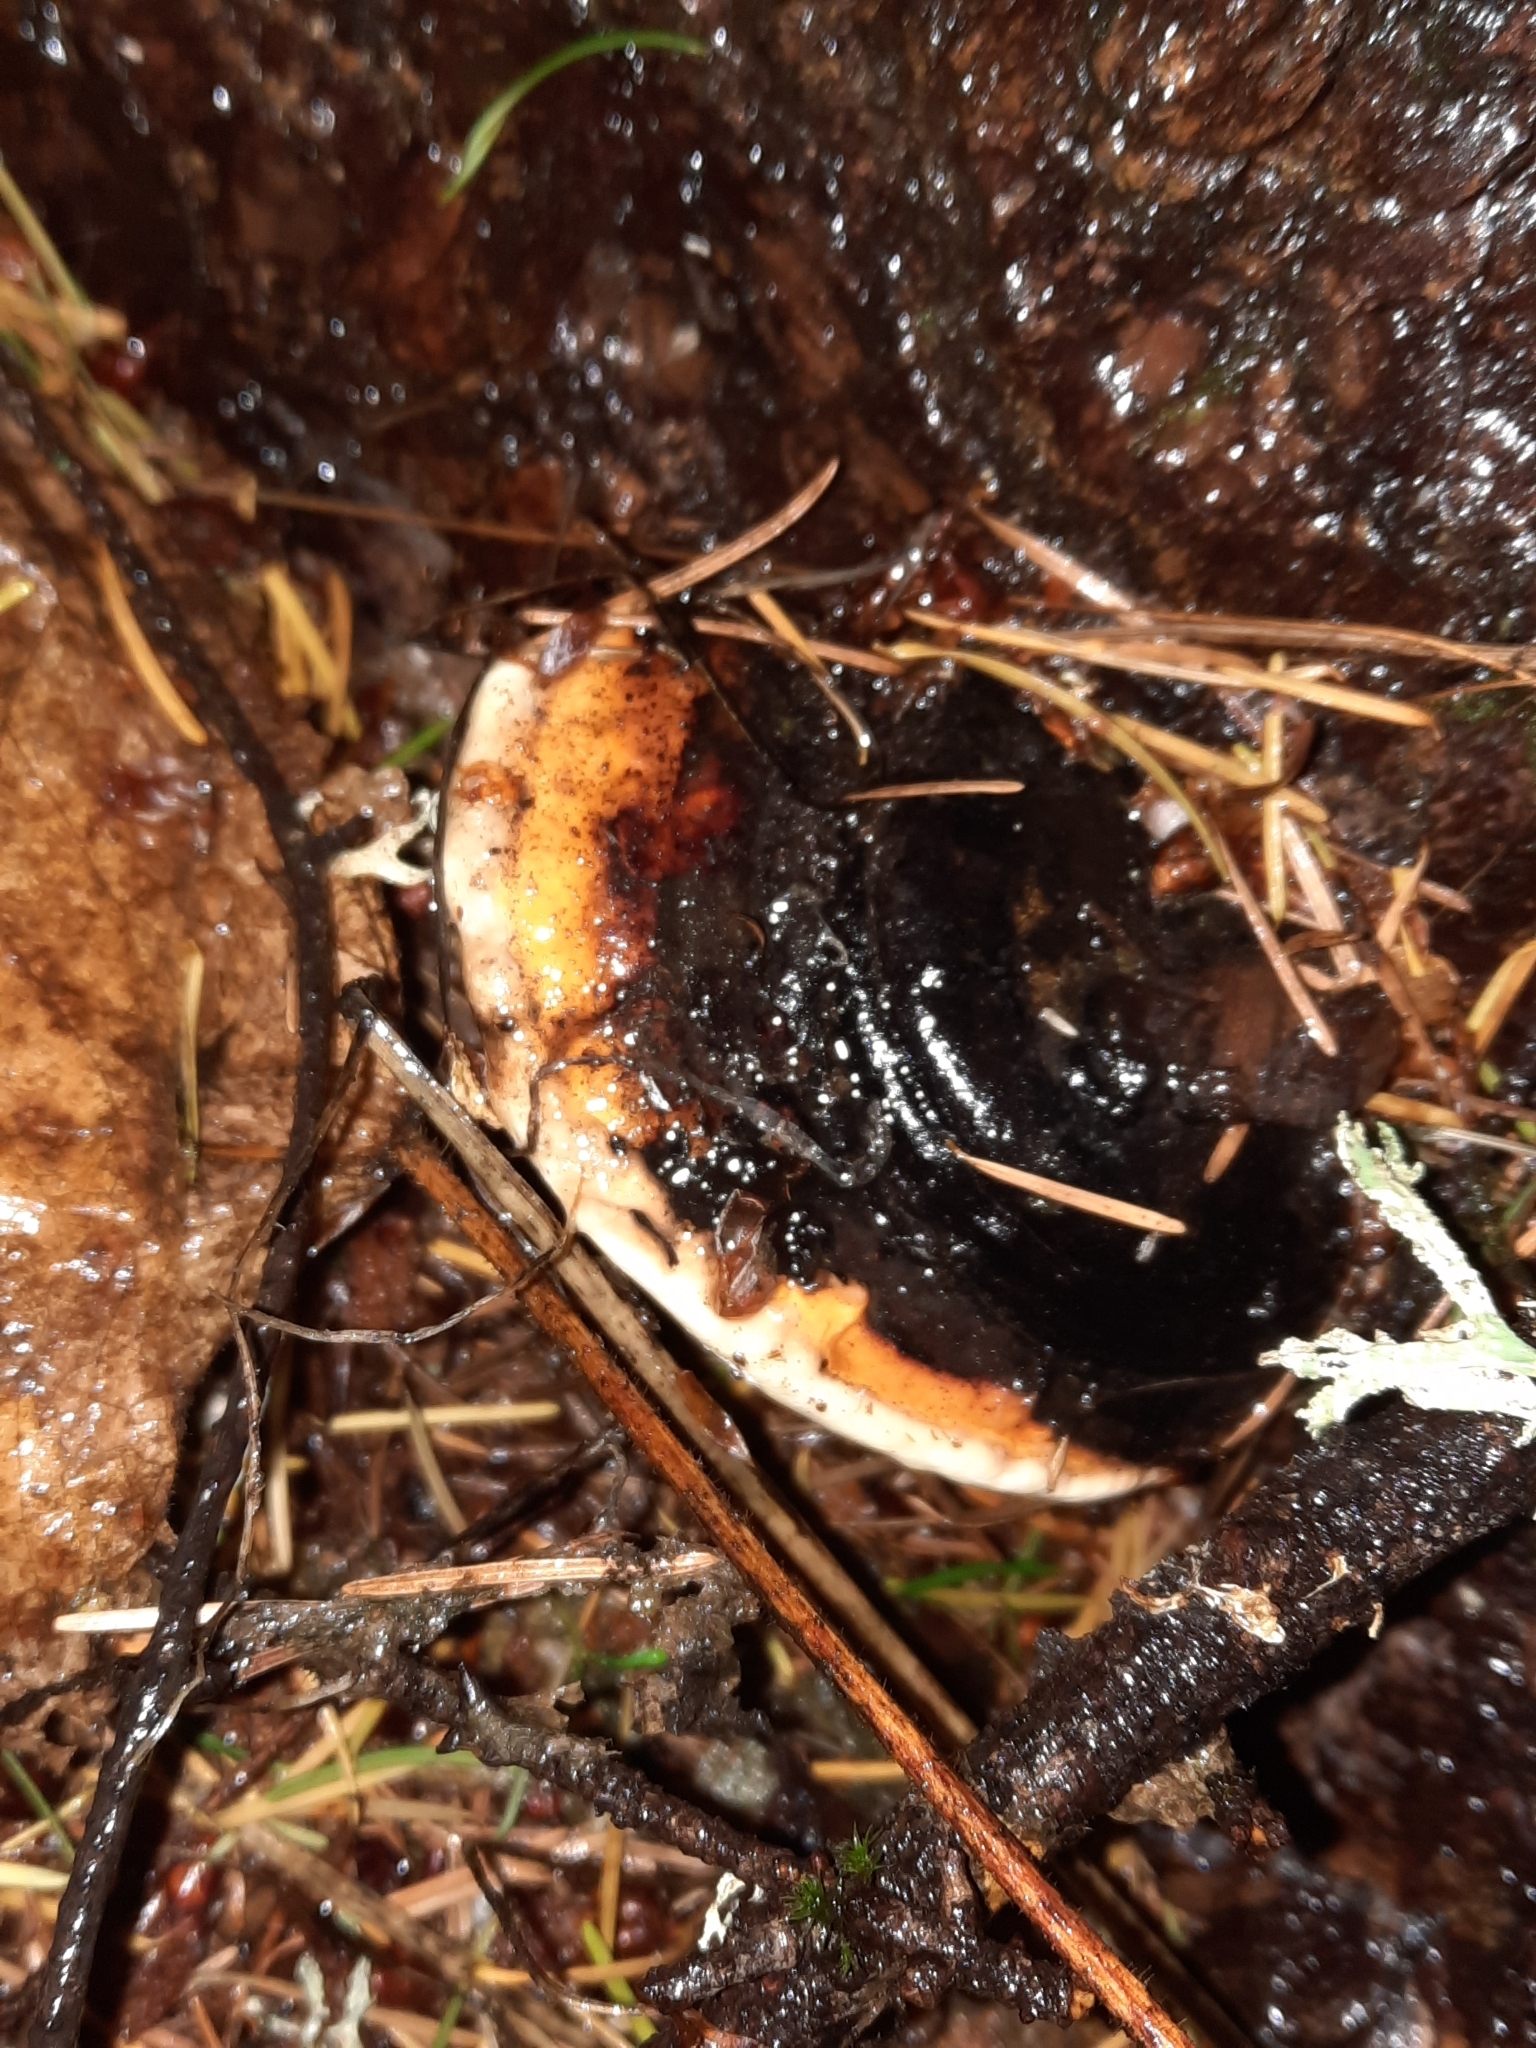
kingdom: Fungi
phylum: Basidiomycota
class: Agaricomycetes
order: Polyporales
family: Fomitopsidaceae
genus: Fomitopsis
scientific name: Fomitopsis mounceae
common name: Northern red belt
